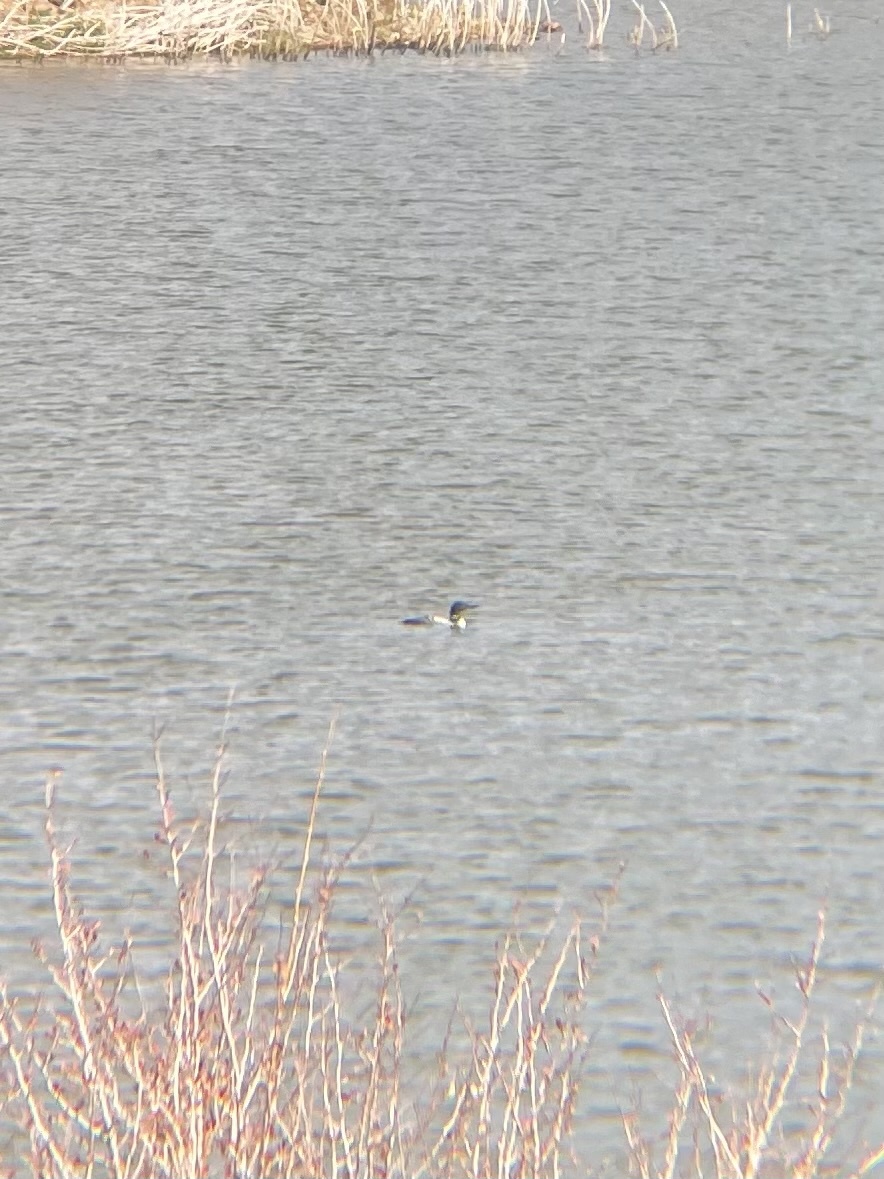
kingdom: Animalia
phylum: Chordata
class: Aves
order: Gaviiformes
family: Gaviidae
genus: Gavia
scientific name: Gavia immer
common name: Common loon
